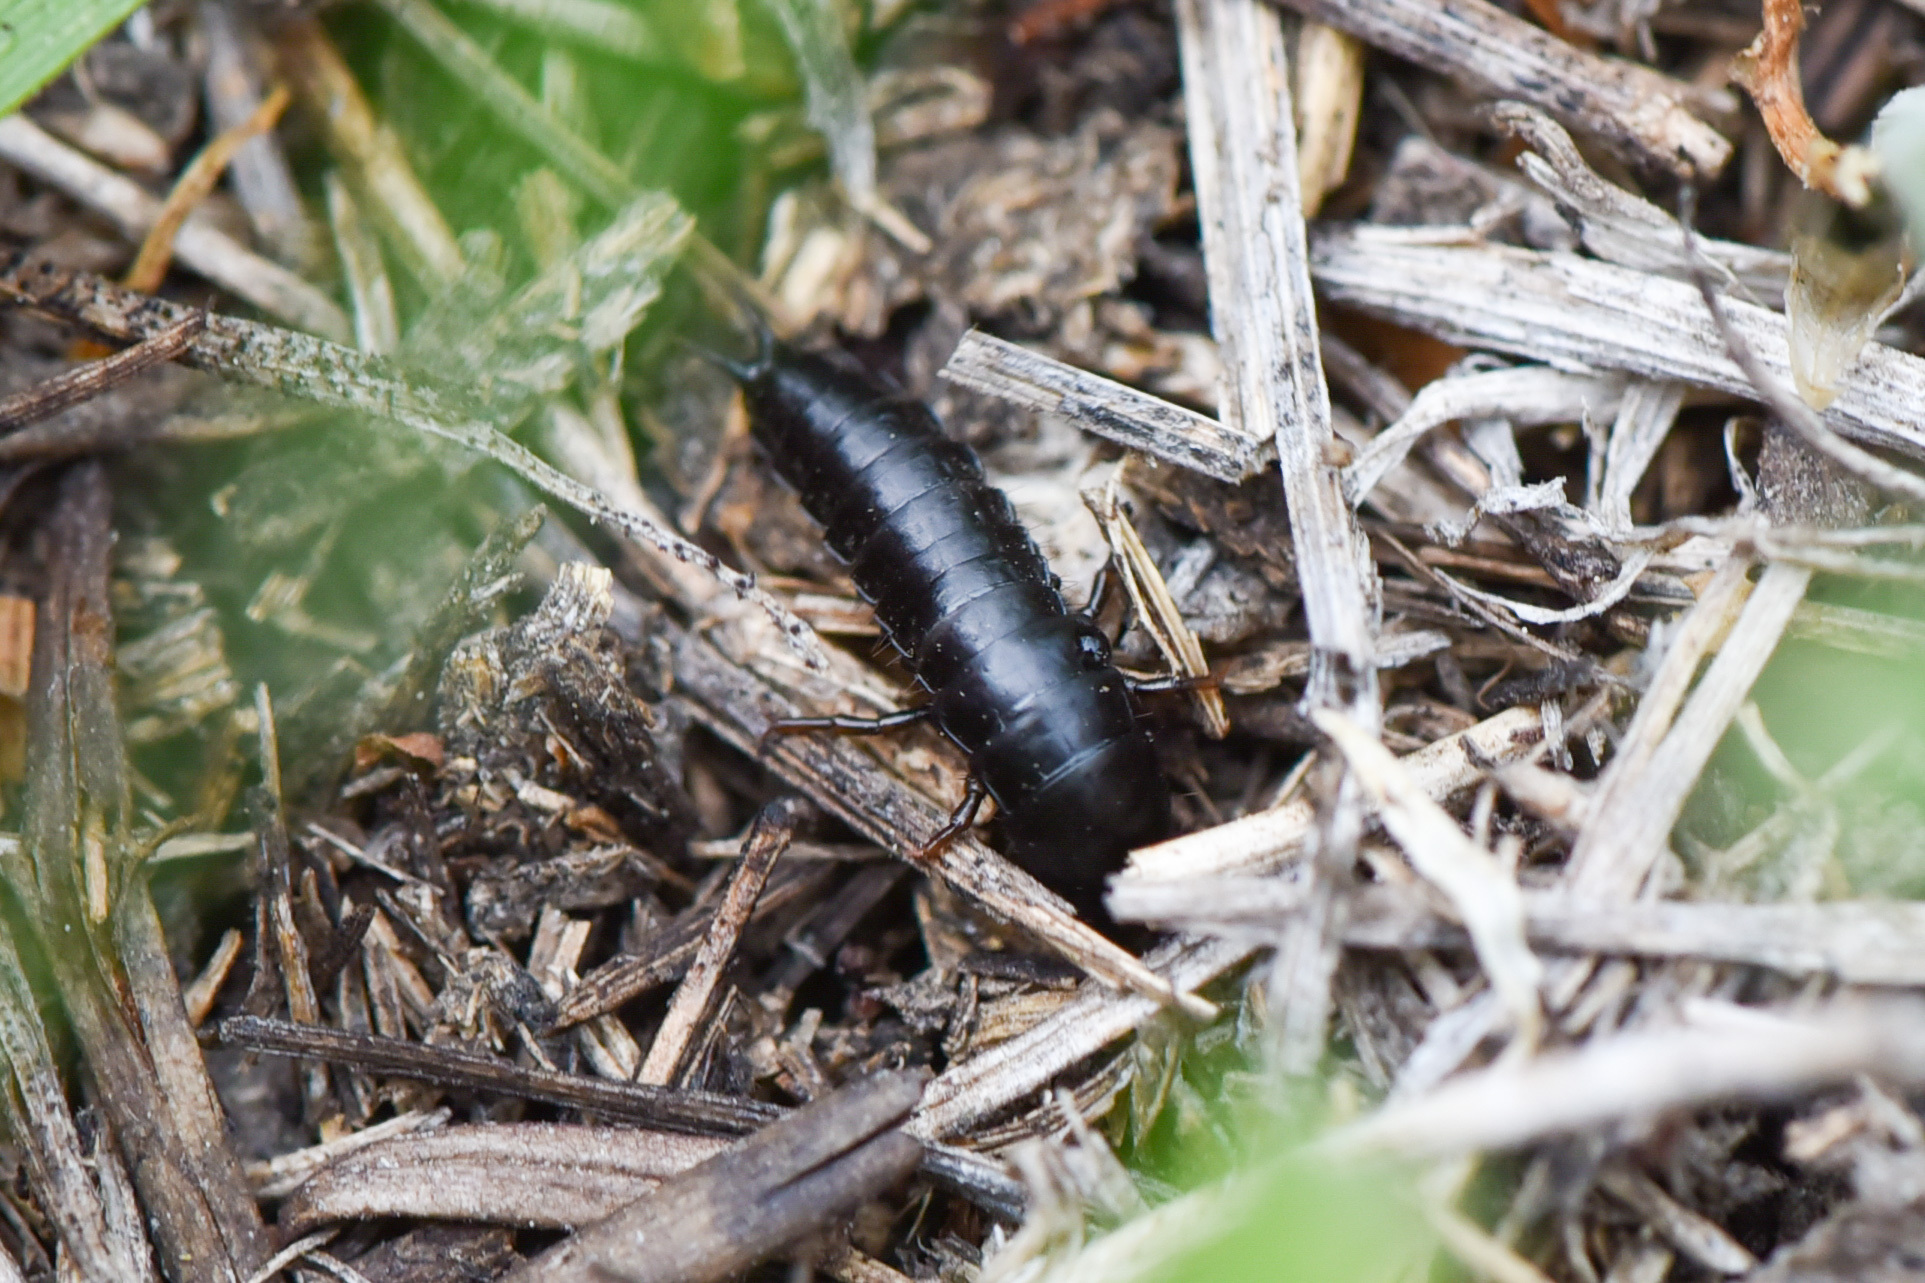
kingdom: Animalia
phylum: Arthropoda
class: Insecta
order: Coleoptera
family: Carabidae
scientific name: Carabidae
